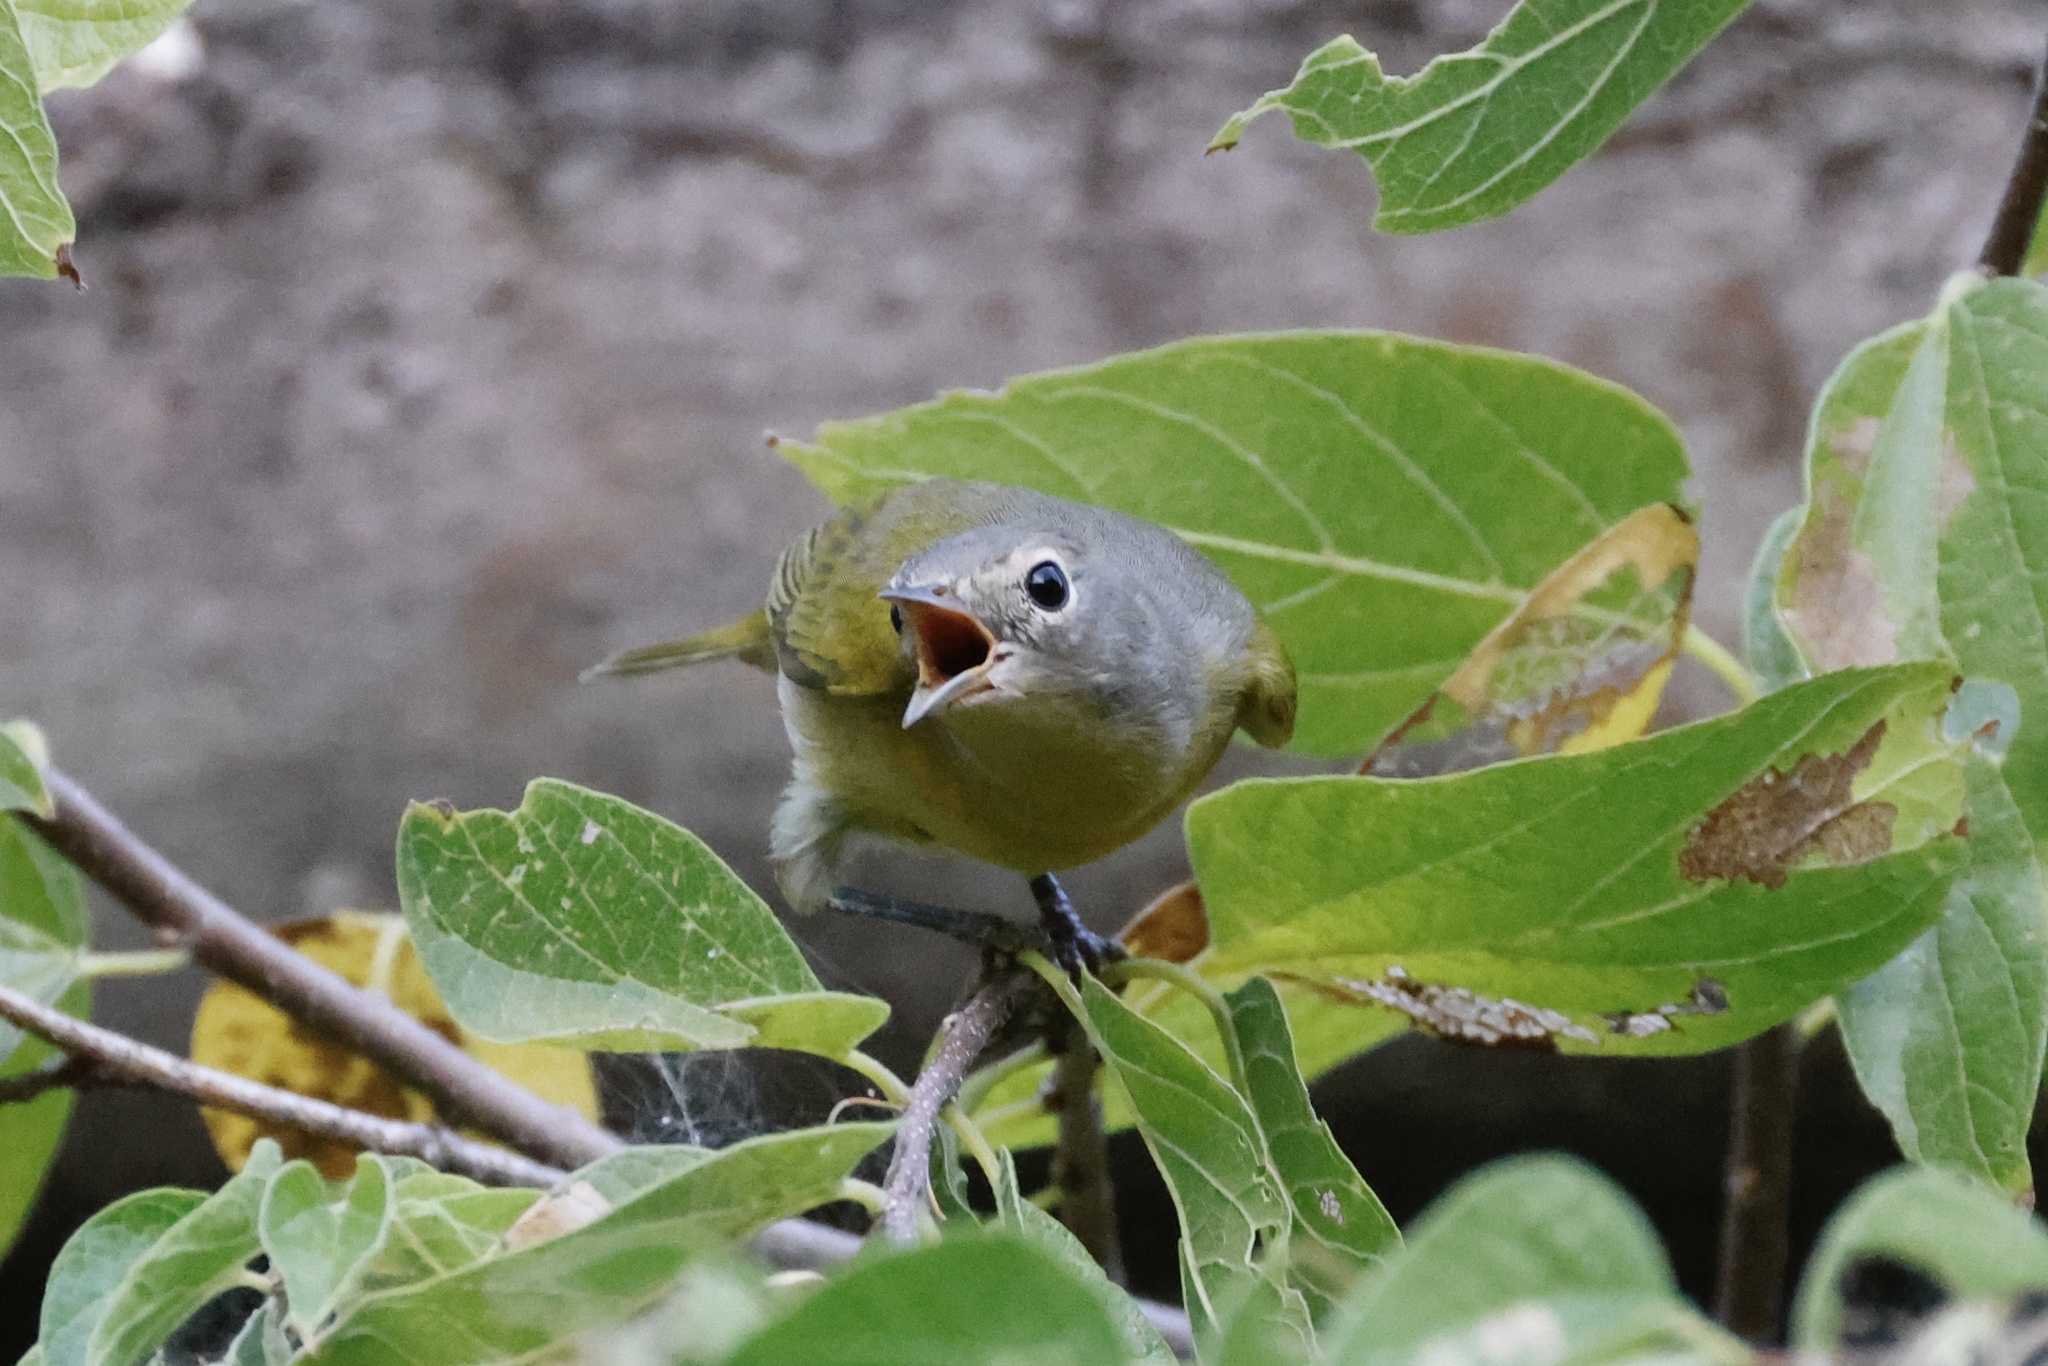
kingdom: Animalia
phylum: Chordata
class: Aves
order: Passeriformes
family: Parulidae
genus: Leiothlypis
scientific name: Leiothlypis ruficapilla
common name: Nashville warbler
